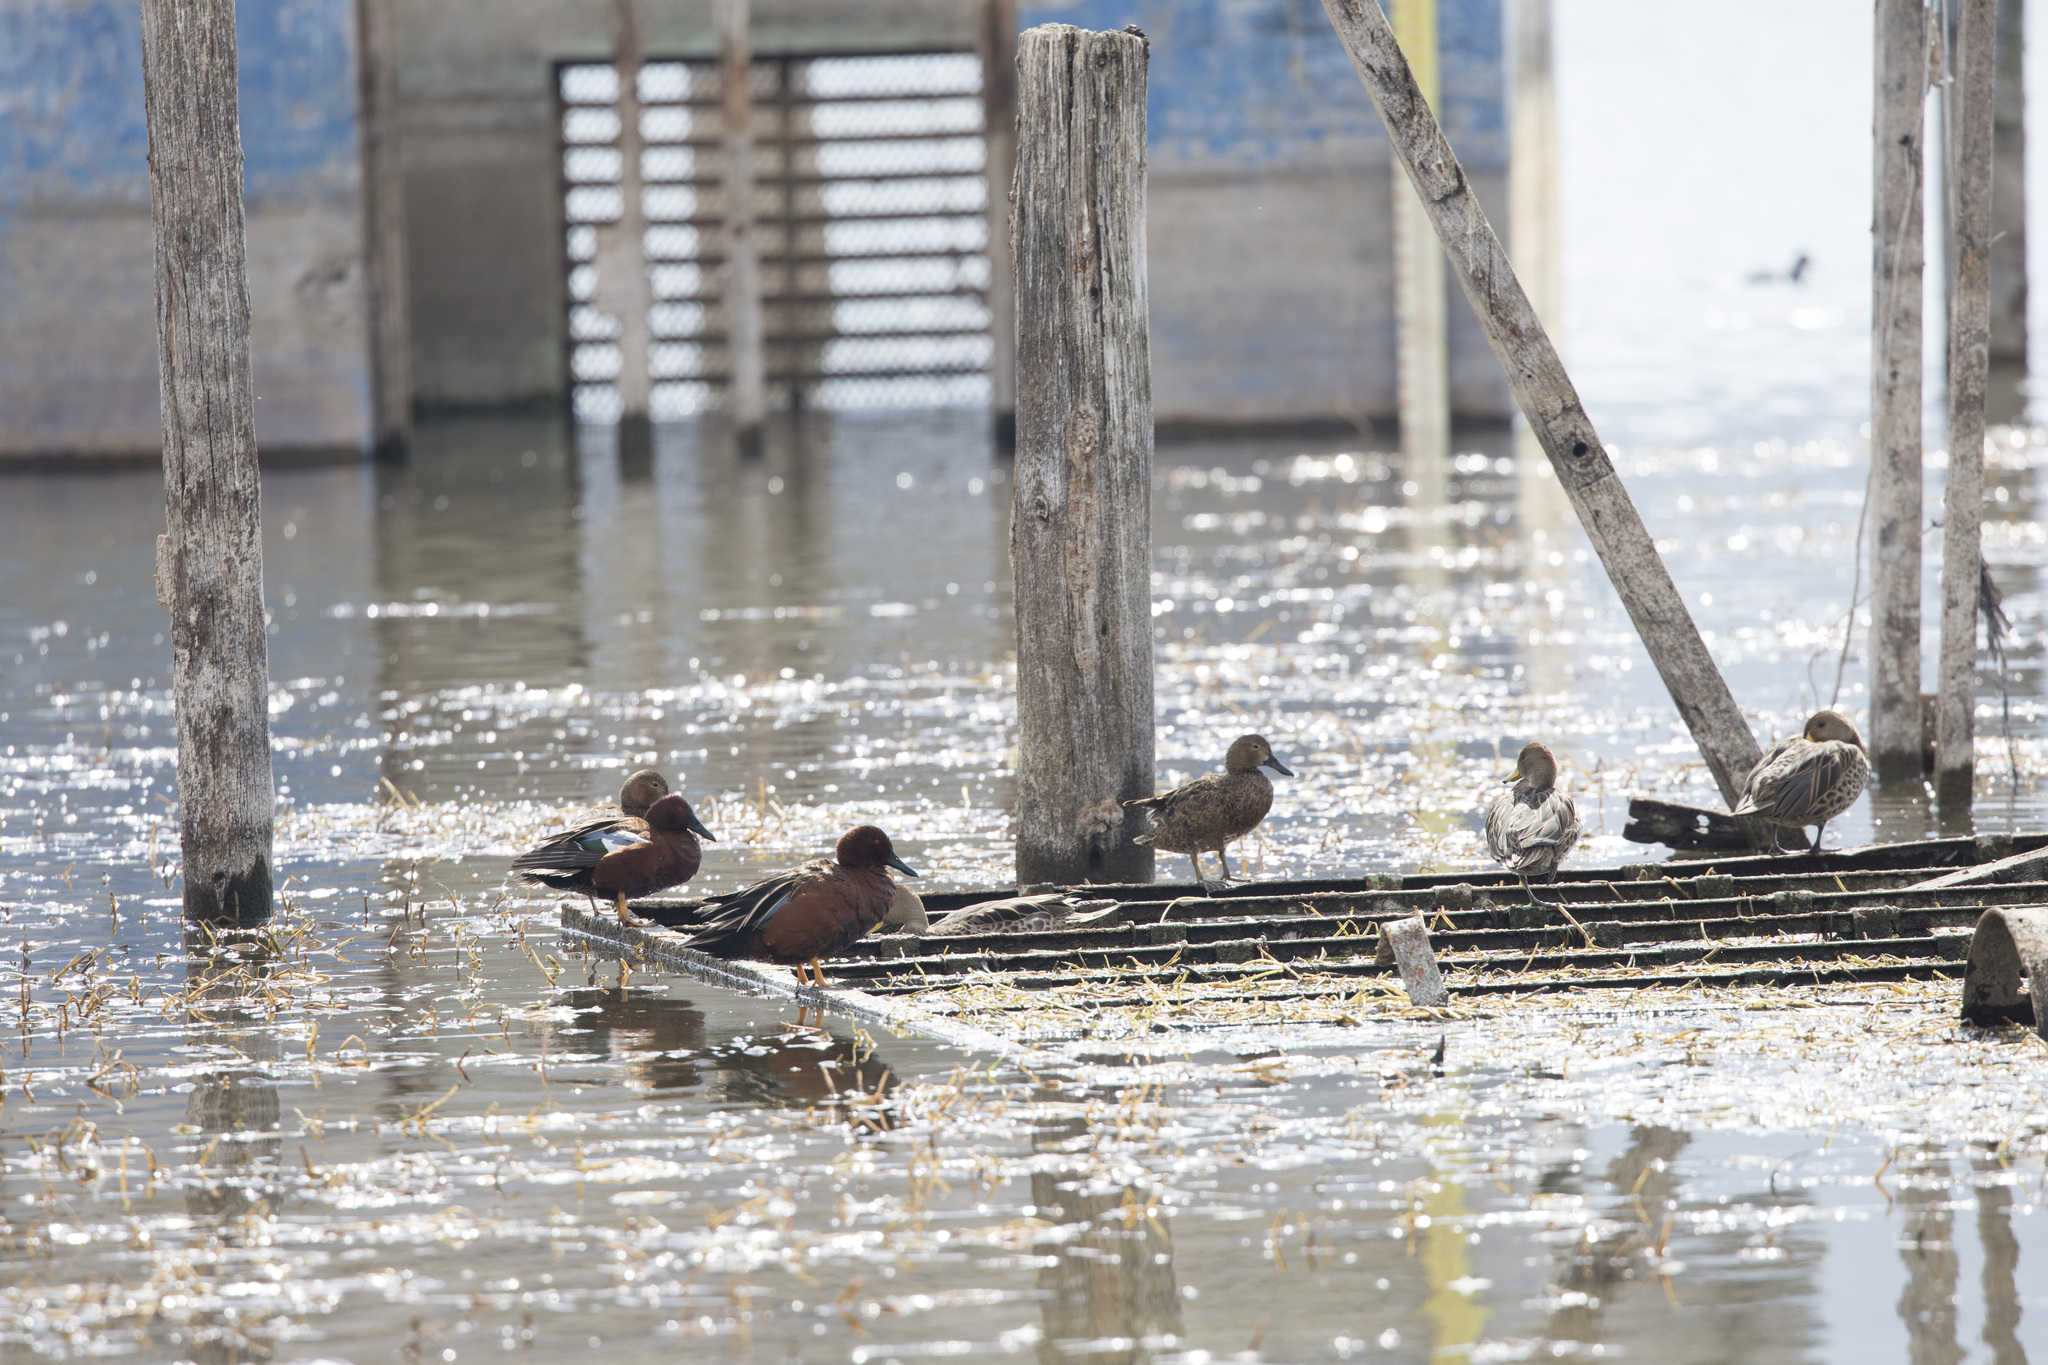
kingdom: Animalia
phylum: Chordata
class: Aves
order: Anseriformes
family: Anatidae
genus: Spatula
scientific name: Spatula cyanoptera
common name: Cinnamon teal
